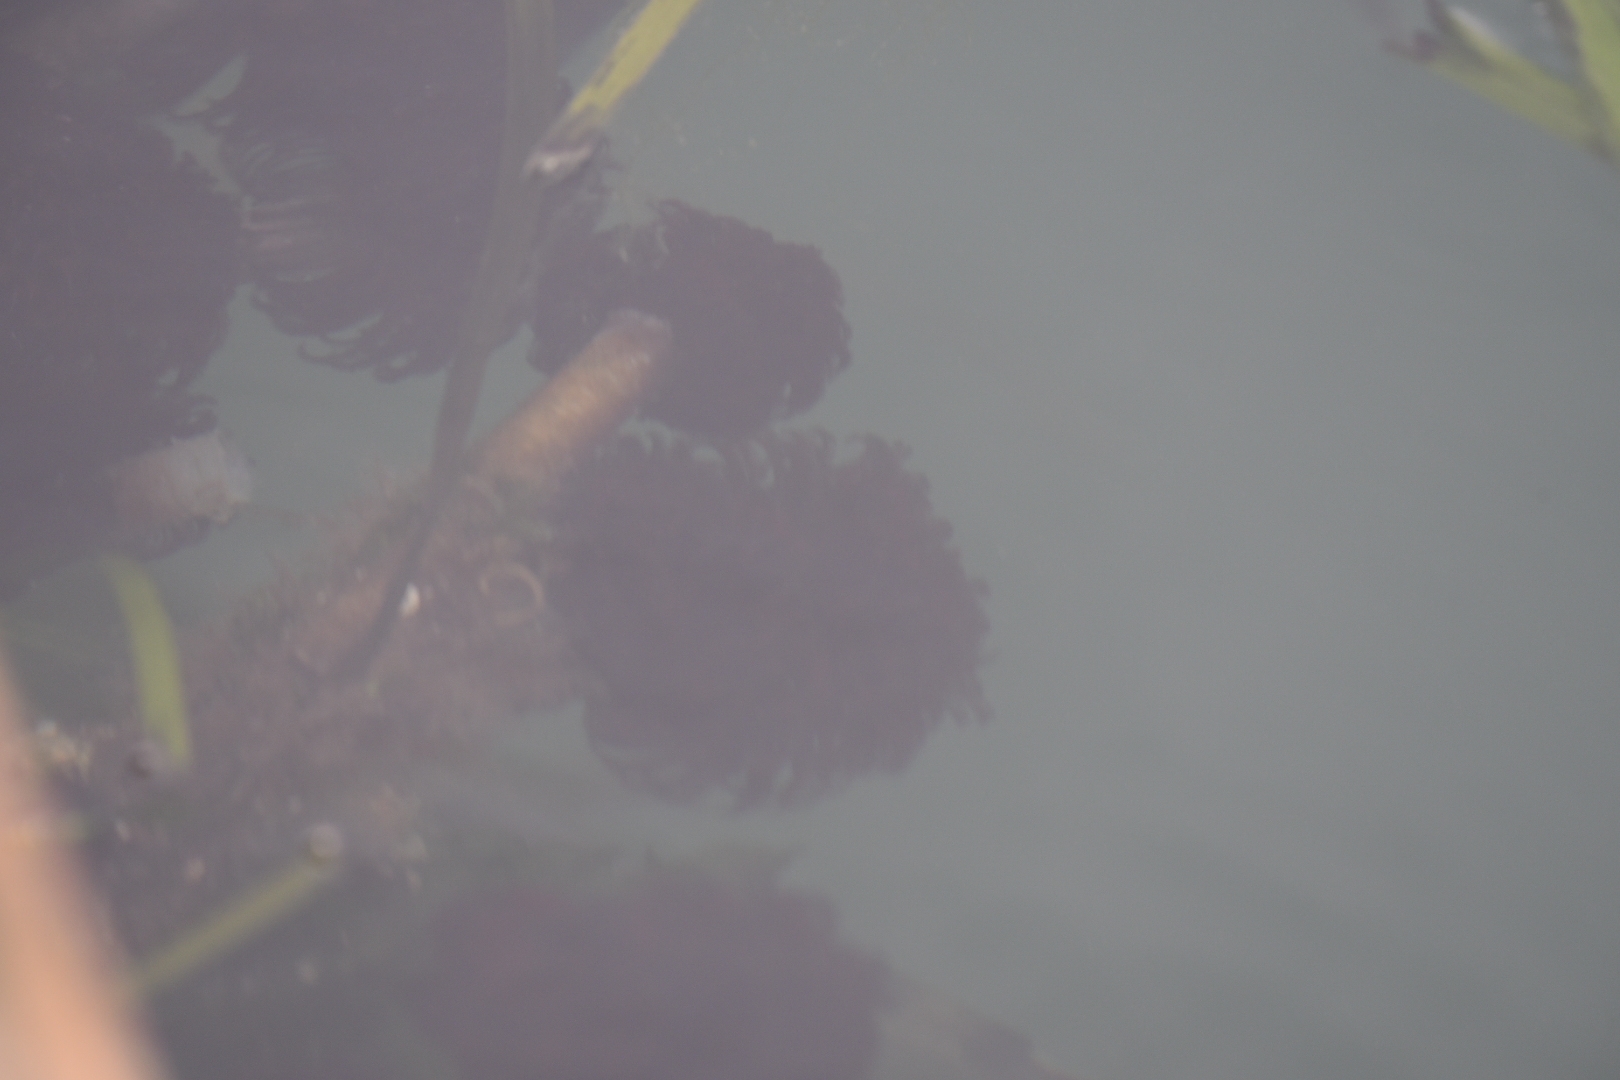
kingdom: Animalia
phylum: Annelida
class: Polychaeta
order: Sabellida
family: Sabellidae
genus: Eudistylia
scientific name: Eudistylia vancouveri
